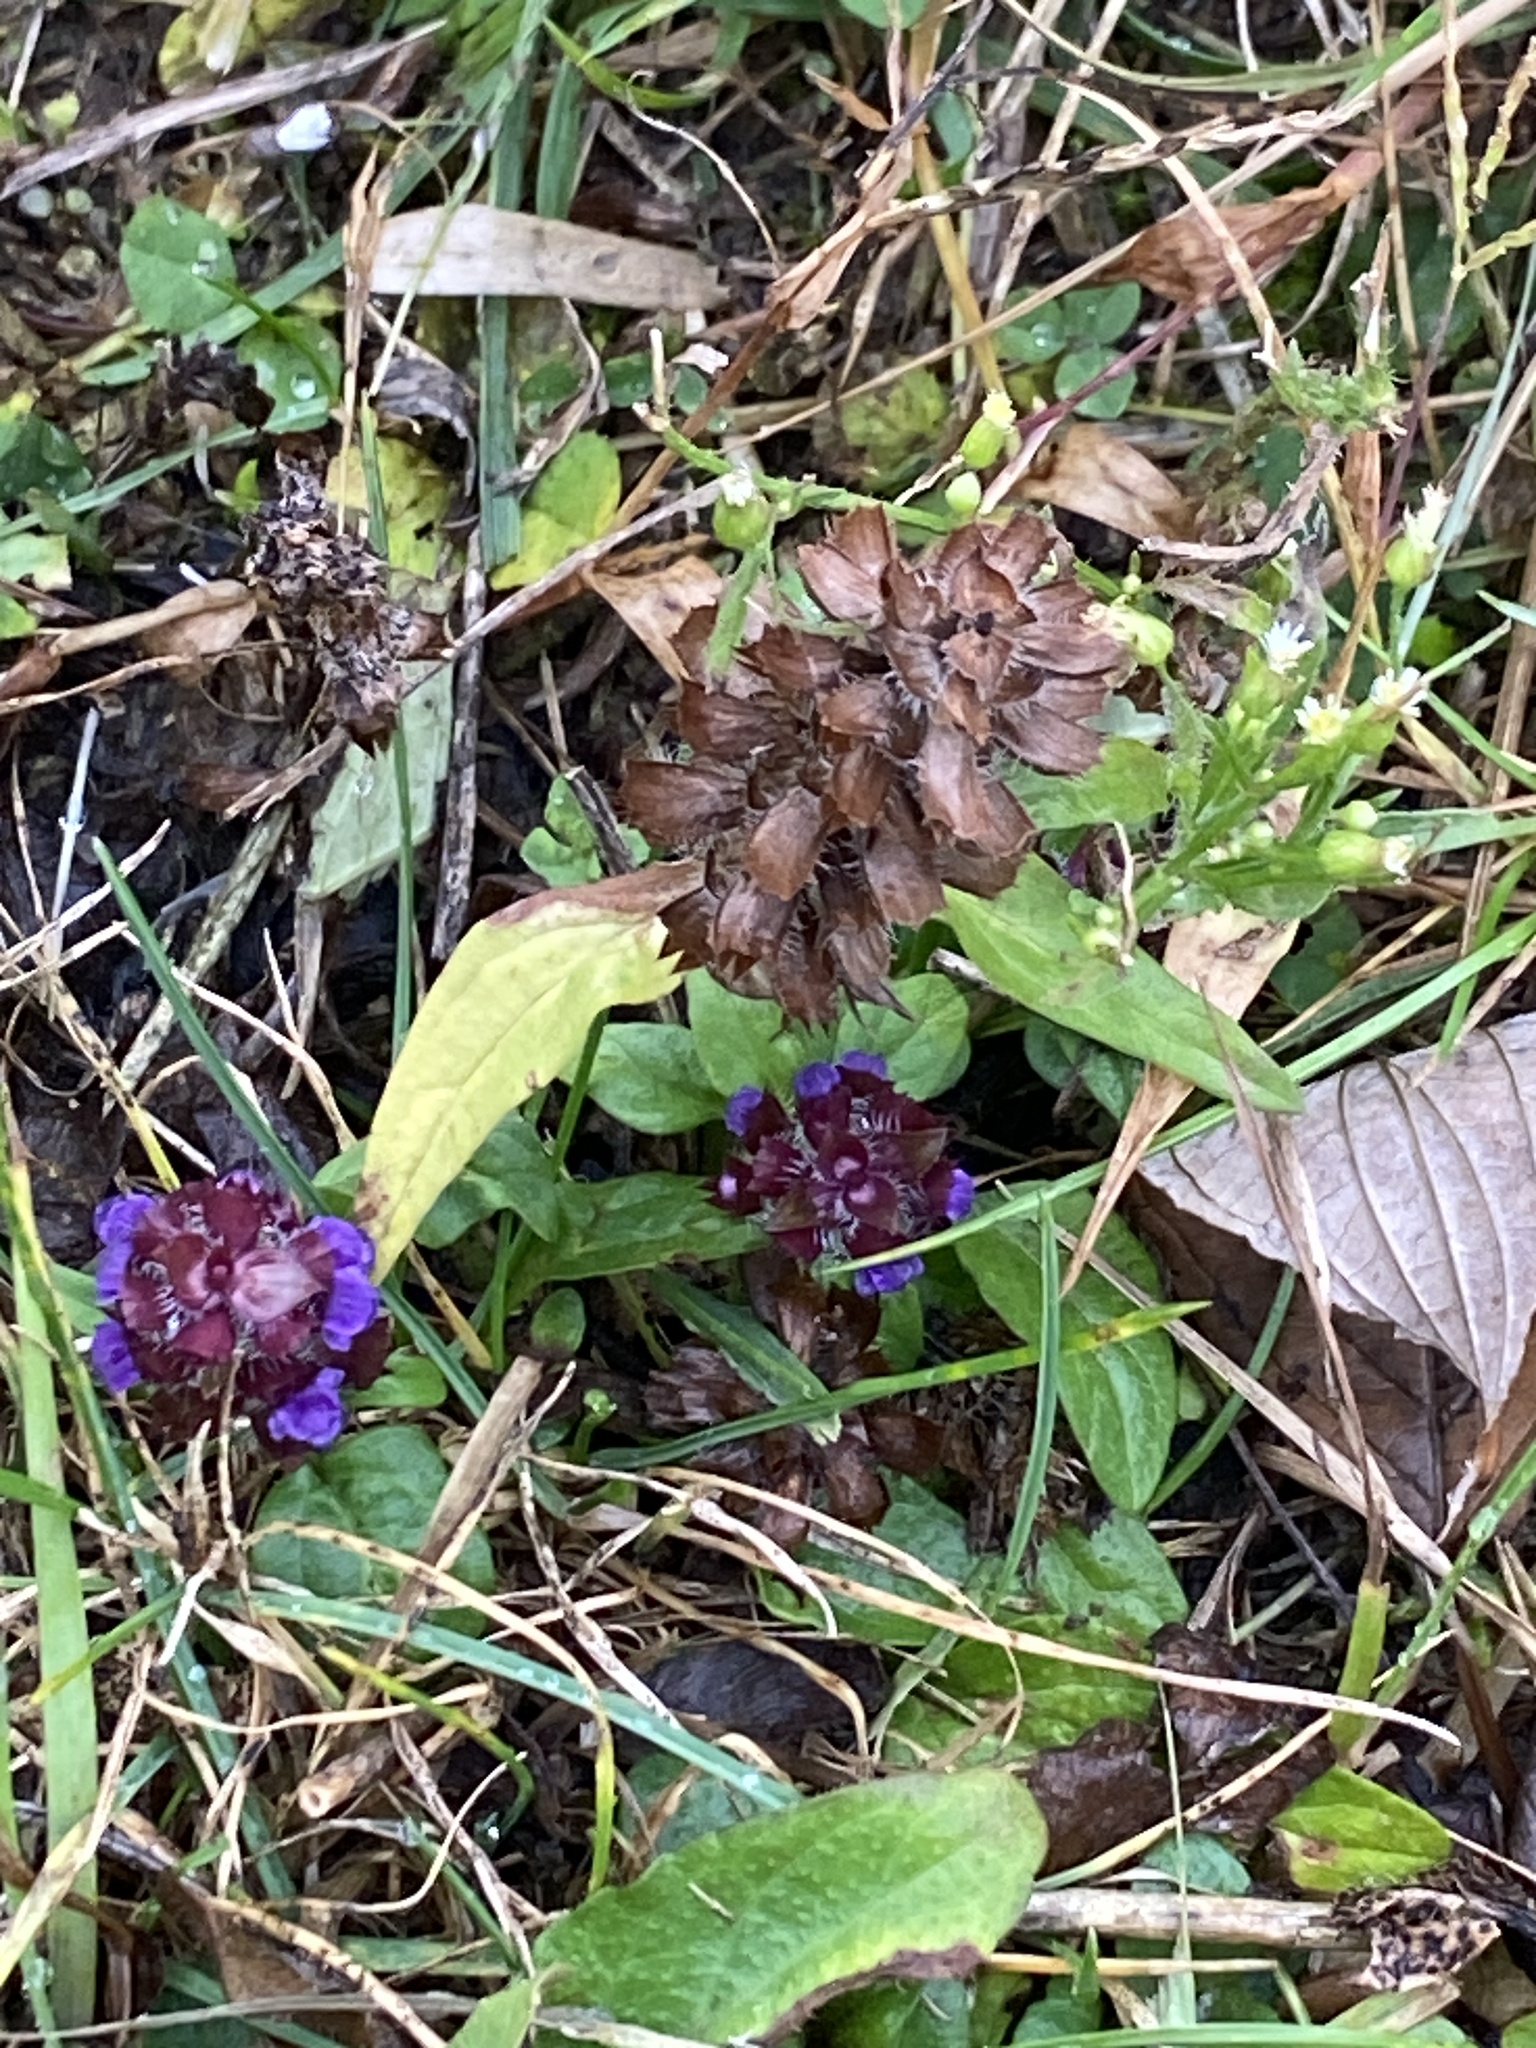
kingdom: Plantae
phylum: Tracheophyta
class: Magnoliopsida
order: Lamiales
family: Lamiaceae
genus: Prunella
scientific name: Prunella vulgaris
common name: Heal-all
